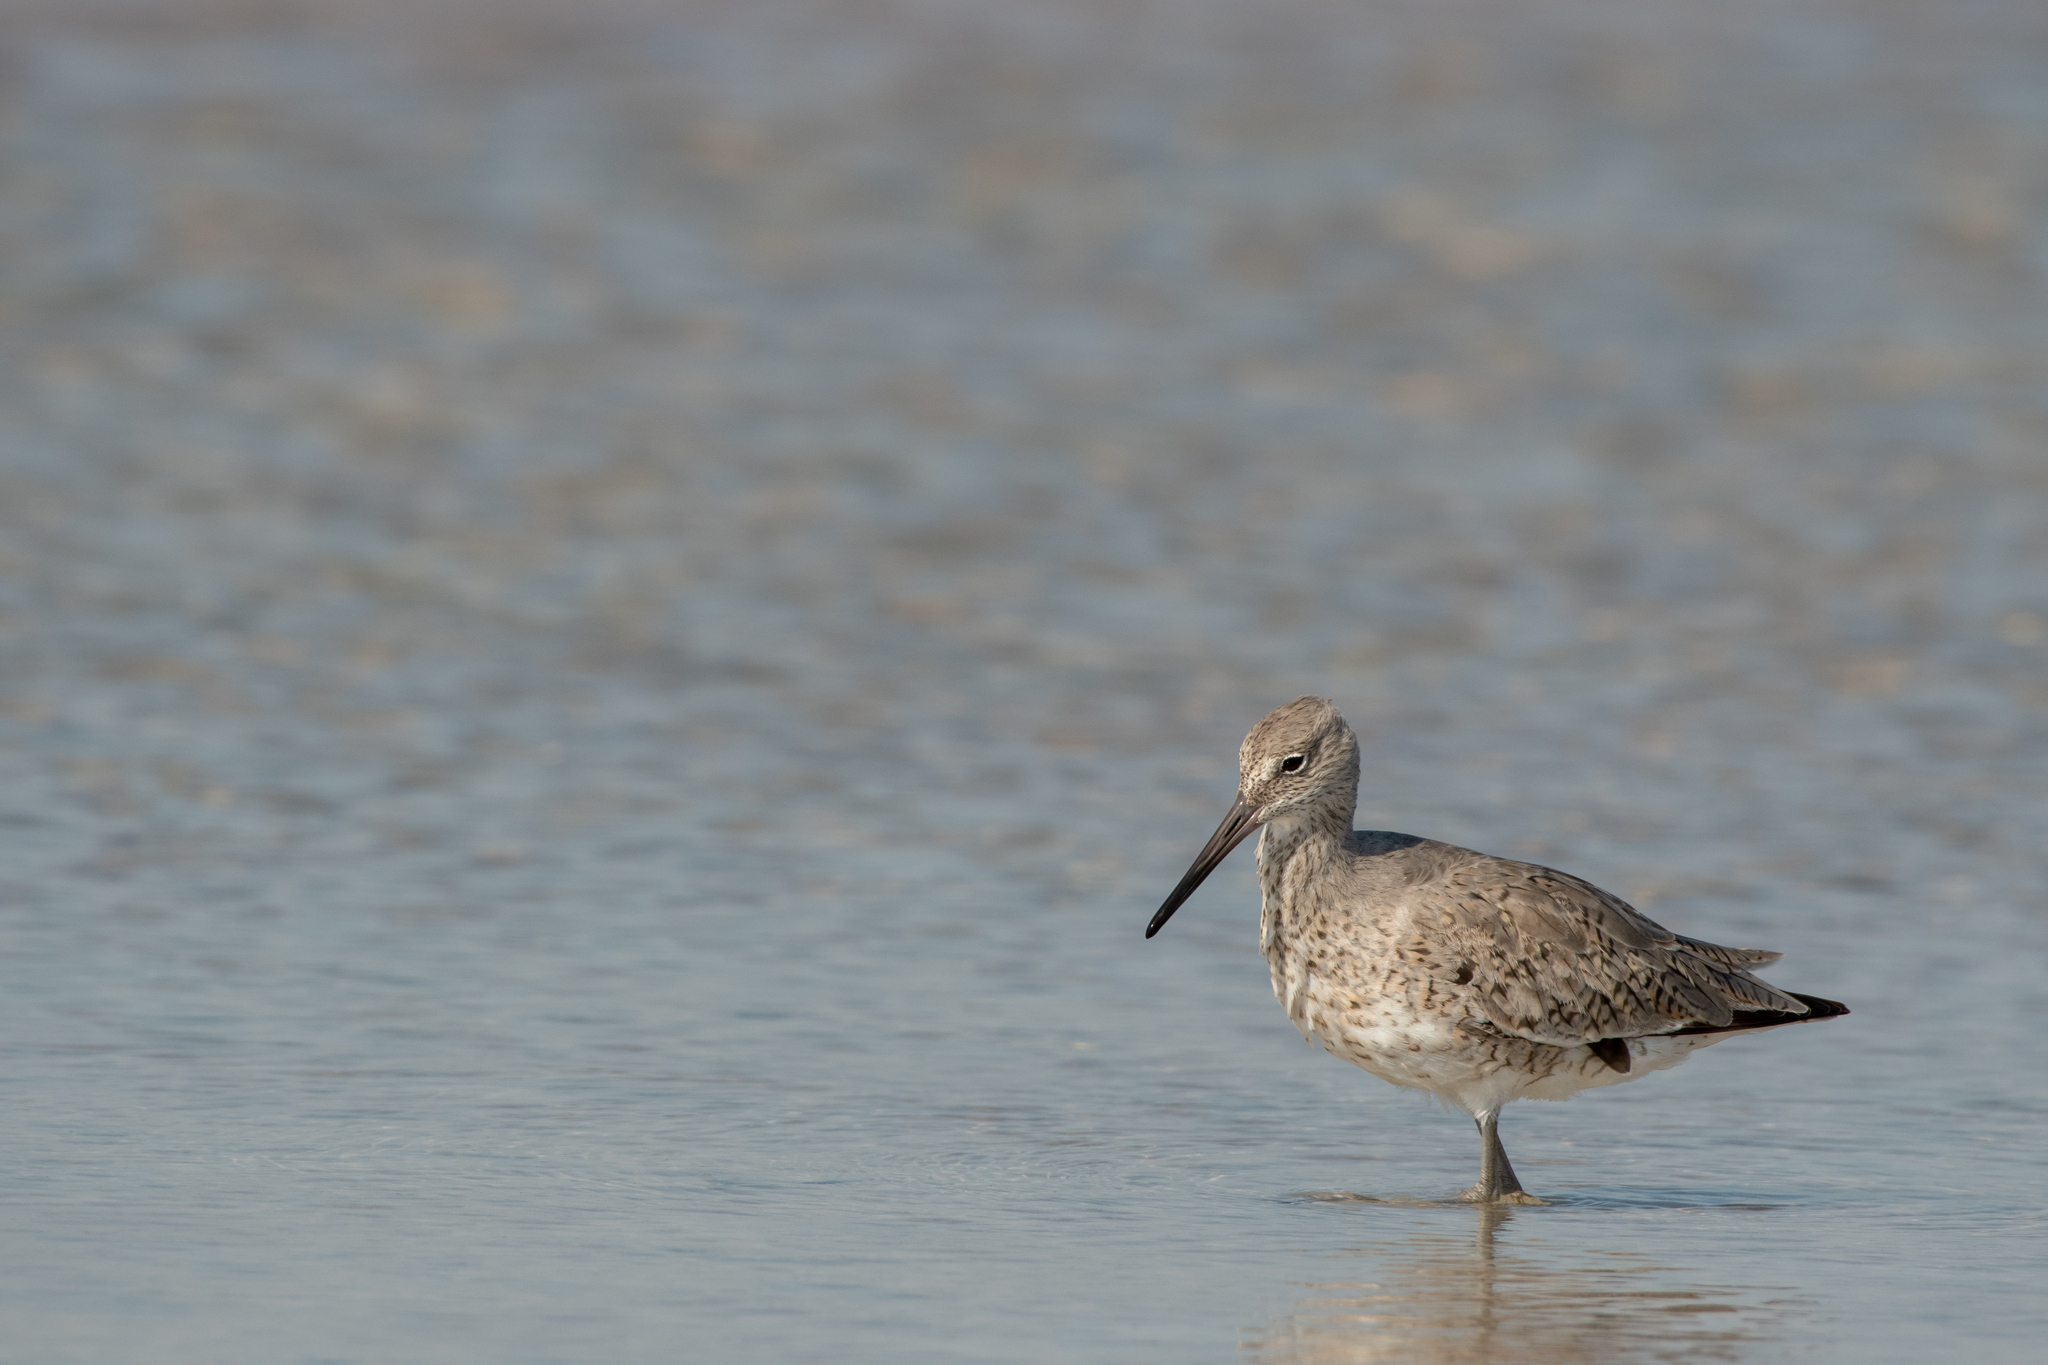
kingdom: Animalia
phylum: Chordata
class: Aves
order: Charadriiformes
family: Scolopacidae
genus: Tringa
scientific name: Tringa semipalmata
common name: Willet
